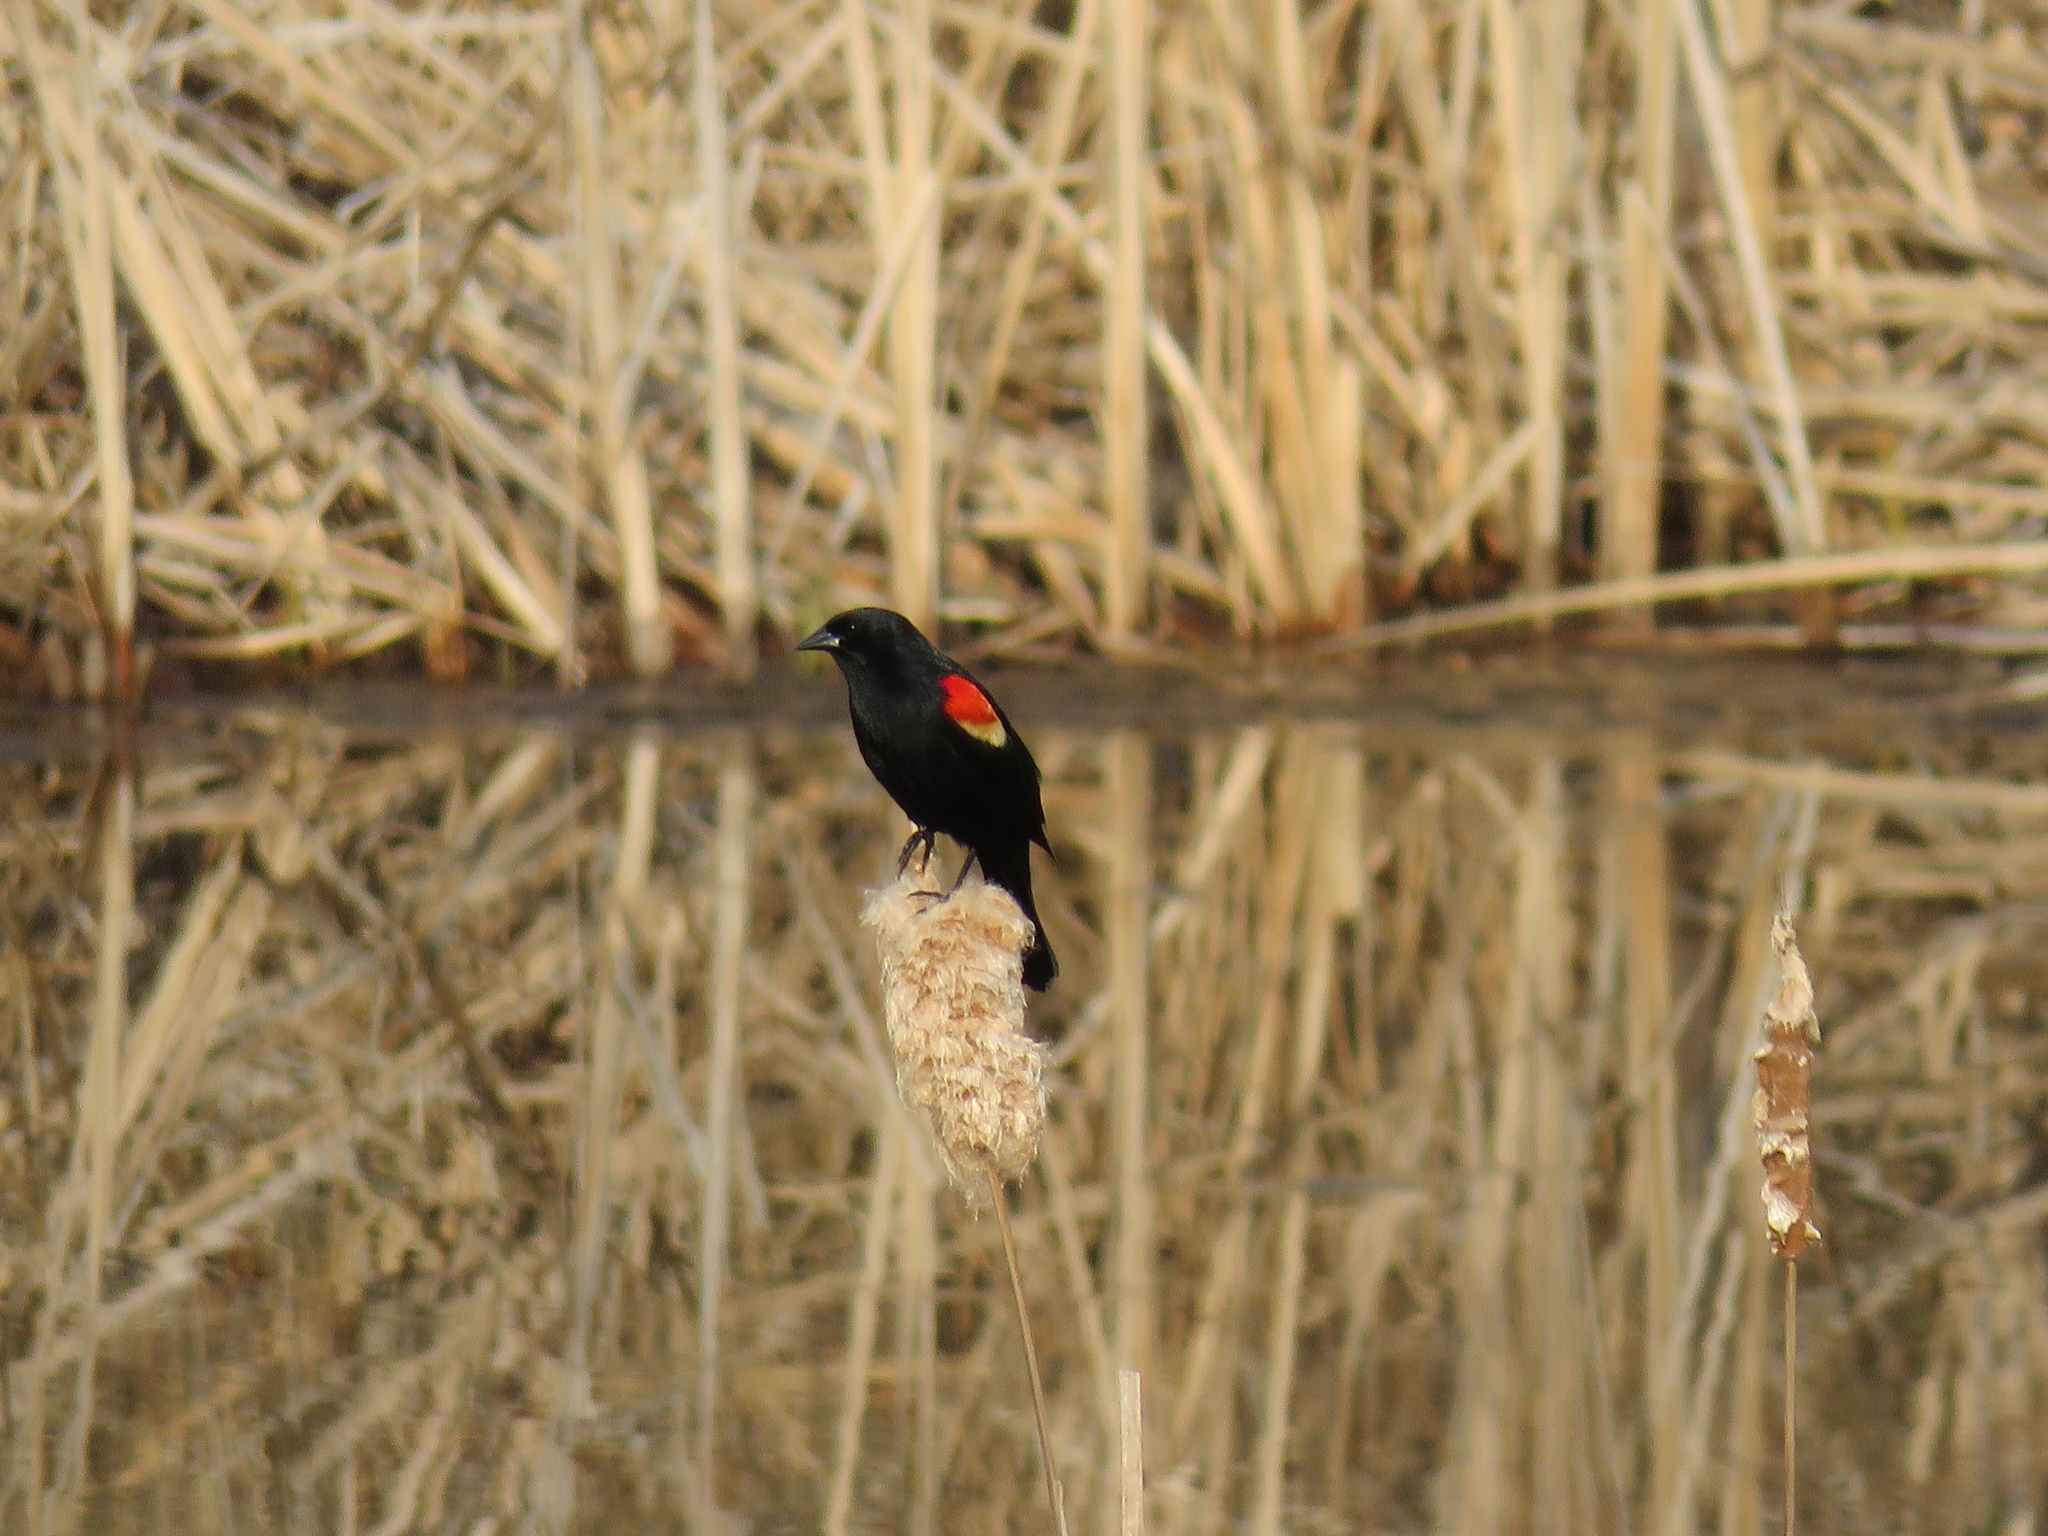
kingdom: Animalia
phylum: Chordata
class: Aves
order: Passeriformes
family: Icteridae
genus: Agelaius
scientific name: Agelaius phoeniceus
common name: Red-winged blackbird
